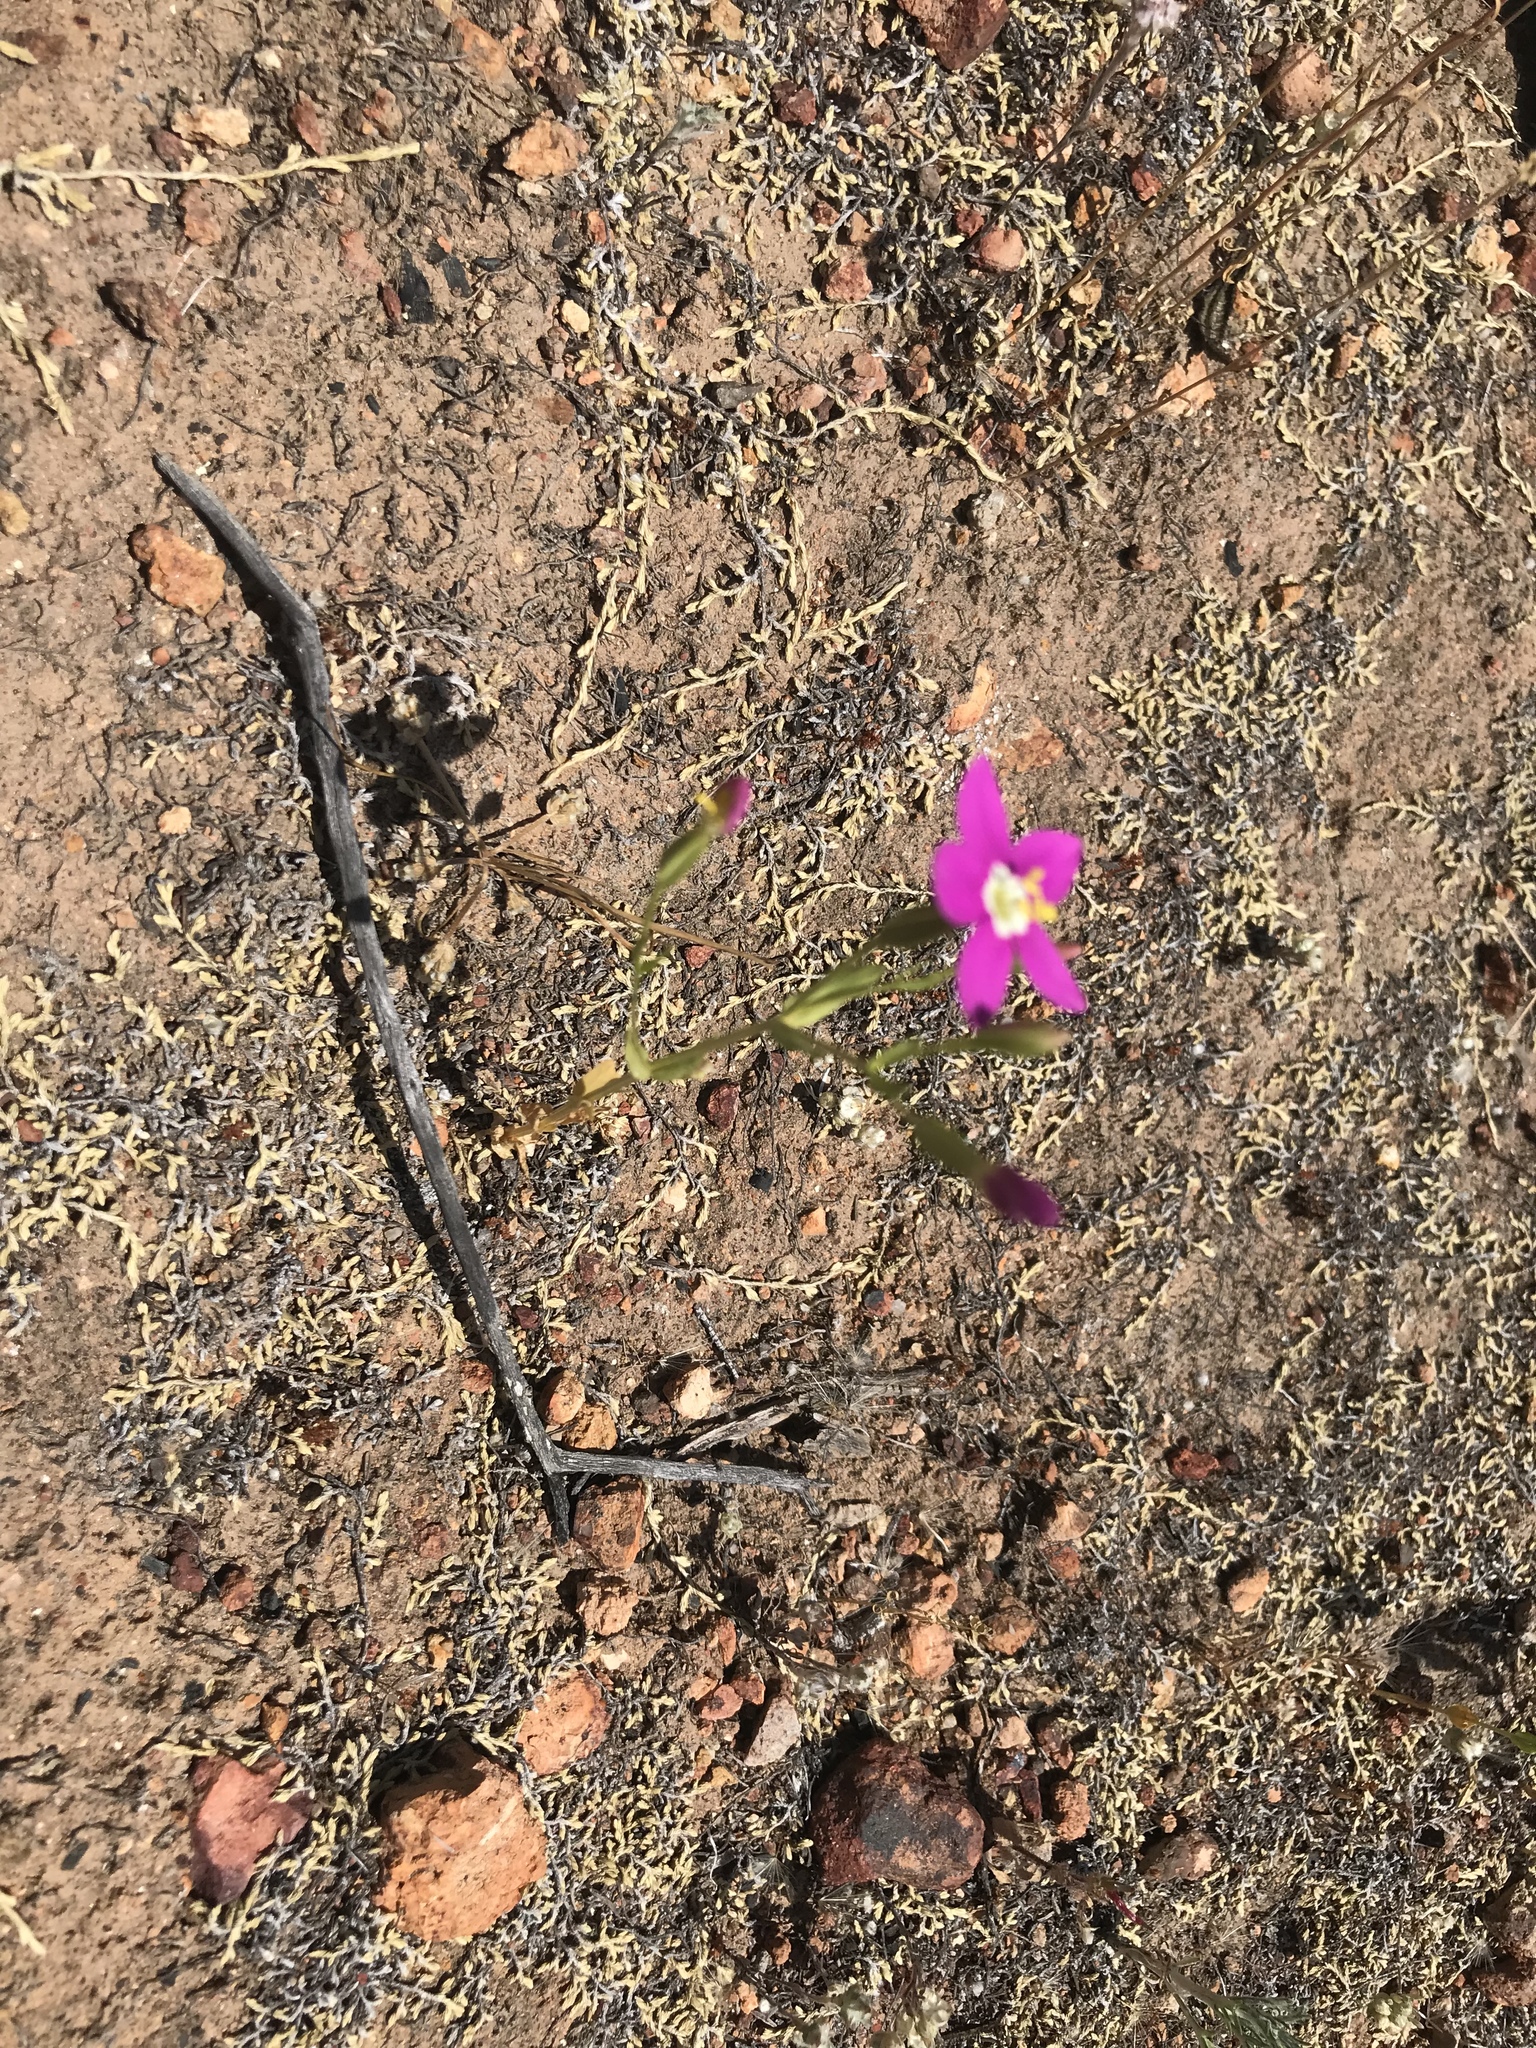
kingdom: Plantae
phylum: Tracheophyta
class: Magnoliopsida
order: Gentianales
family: Gentianaceae
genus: Zeltnera
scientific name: Zeltnera venusta
